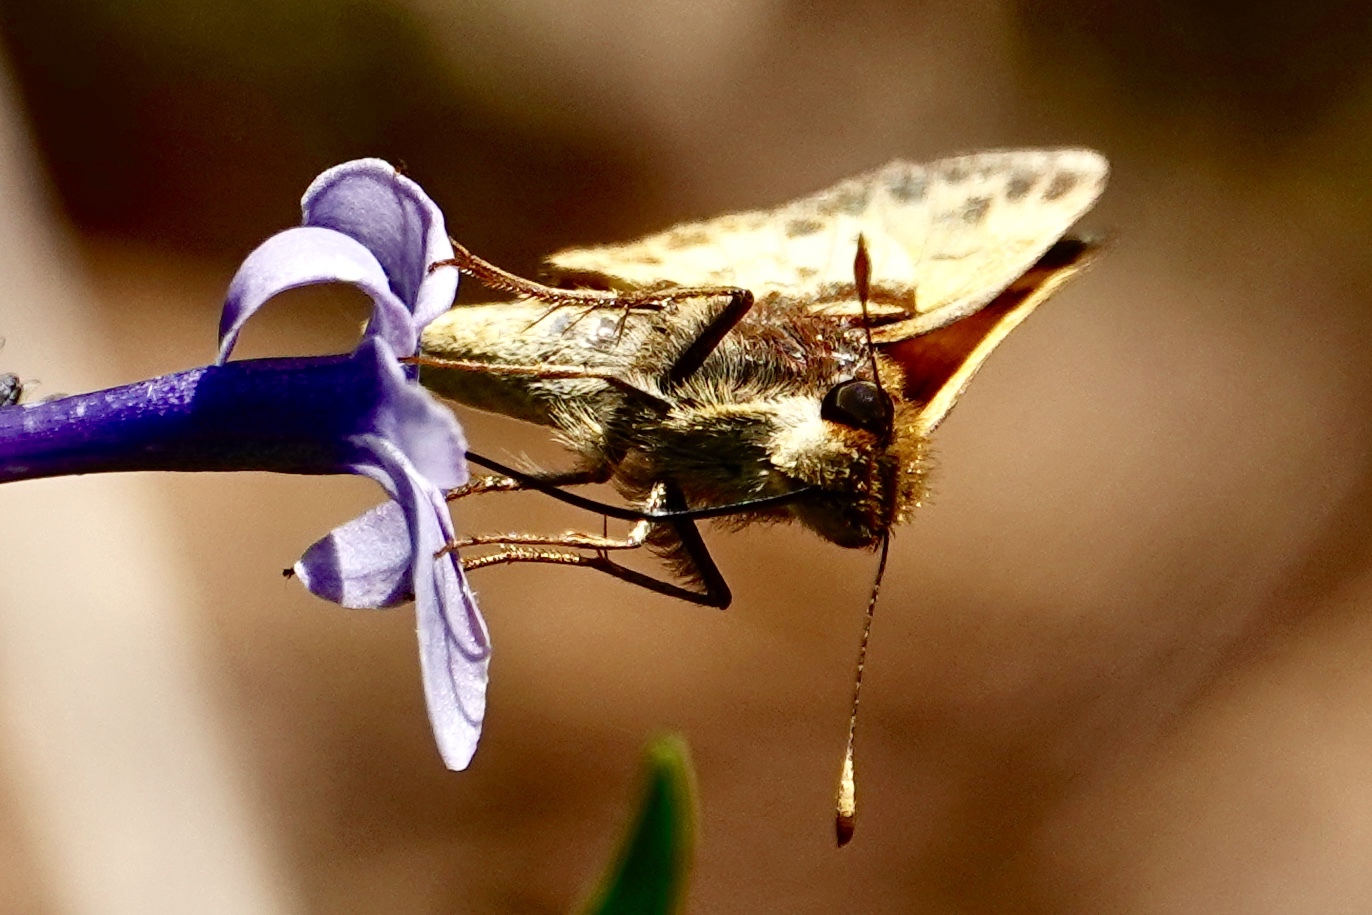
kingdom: Animalia
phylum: Arthropoda
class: Insecta
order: Lepidoptera
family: Hesperiidae
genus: Lon
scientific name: Lon zabulon
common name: Zabulon skipper
